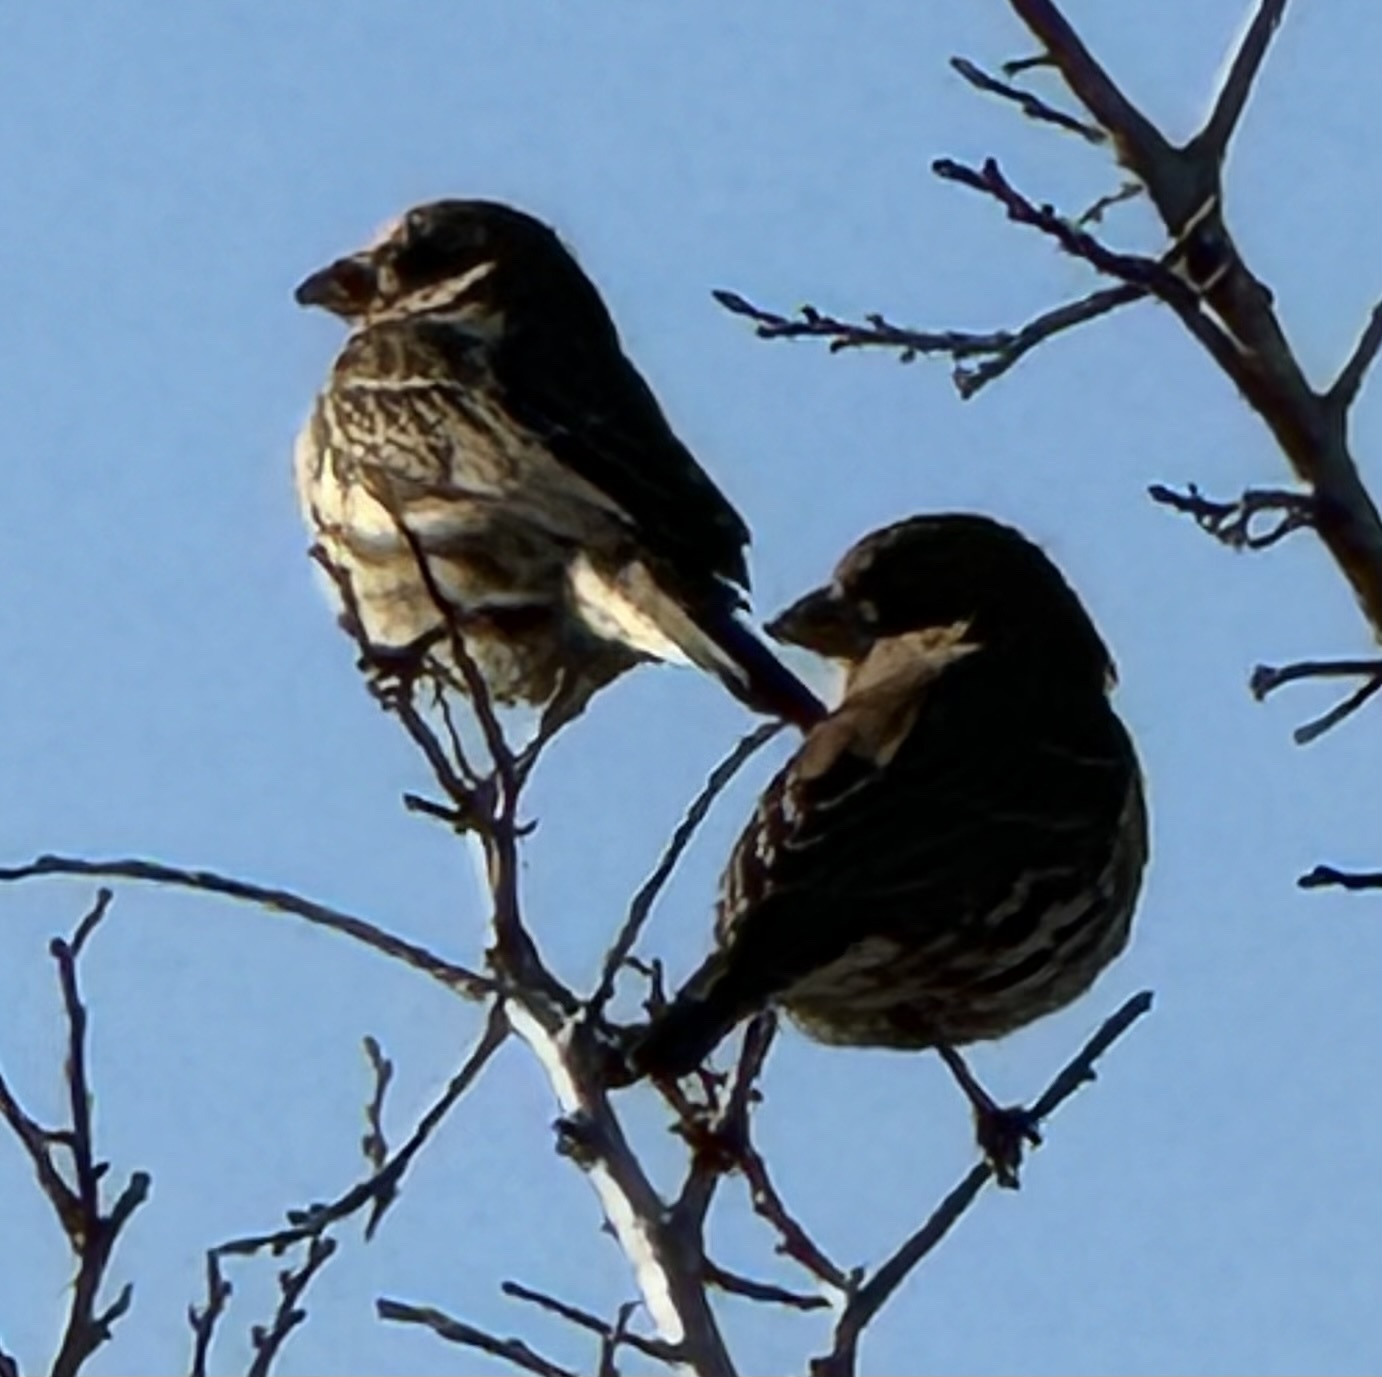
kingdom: Animalia
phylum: Chordata
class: Aves
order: Passeriformes
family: Fringillidae
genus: Haemorhous
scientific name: Haemorhous mexicanus
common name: House finch
